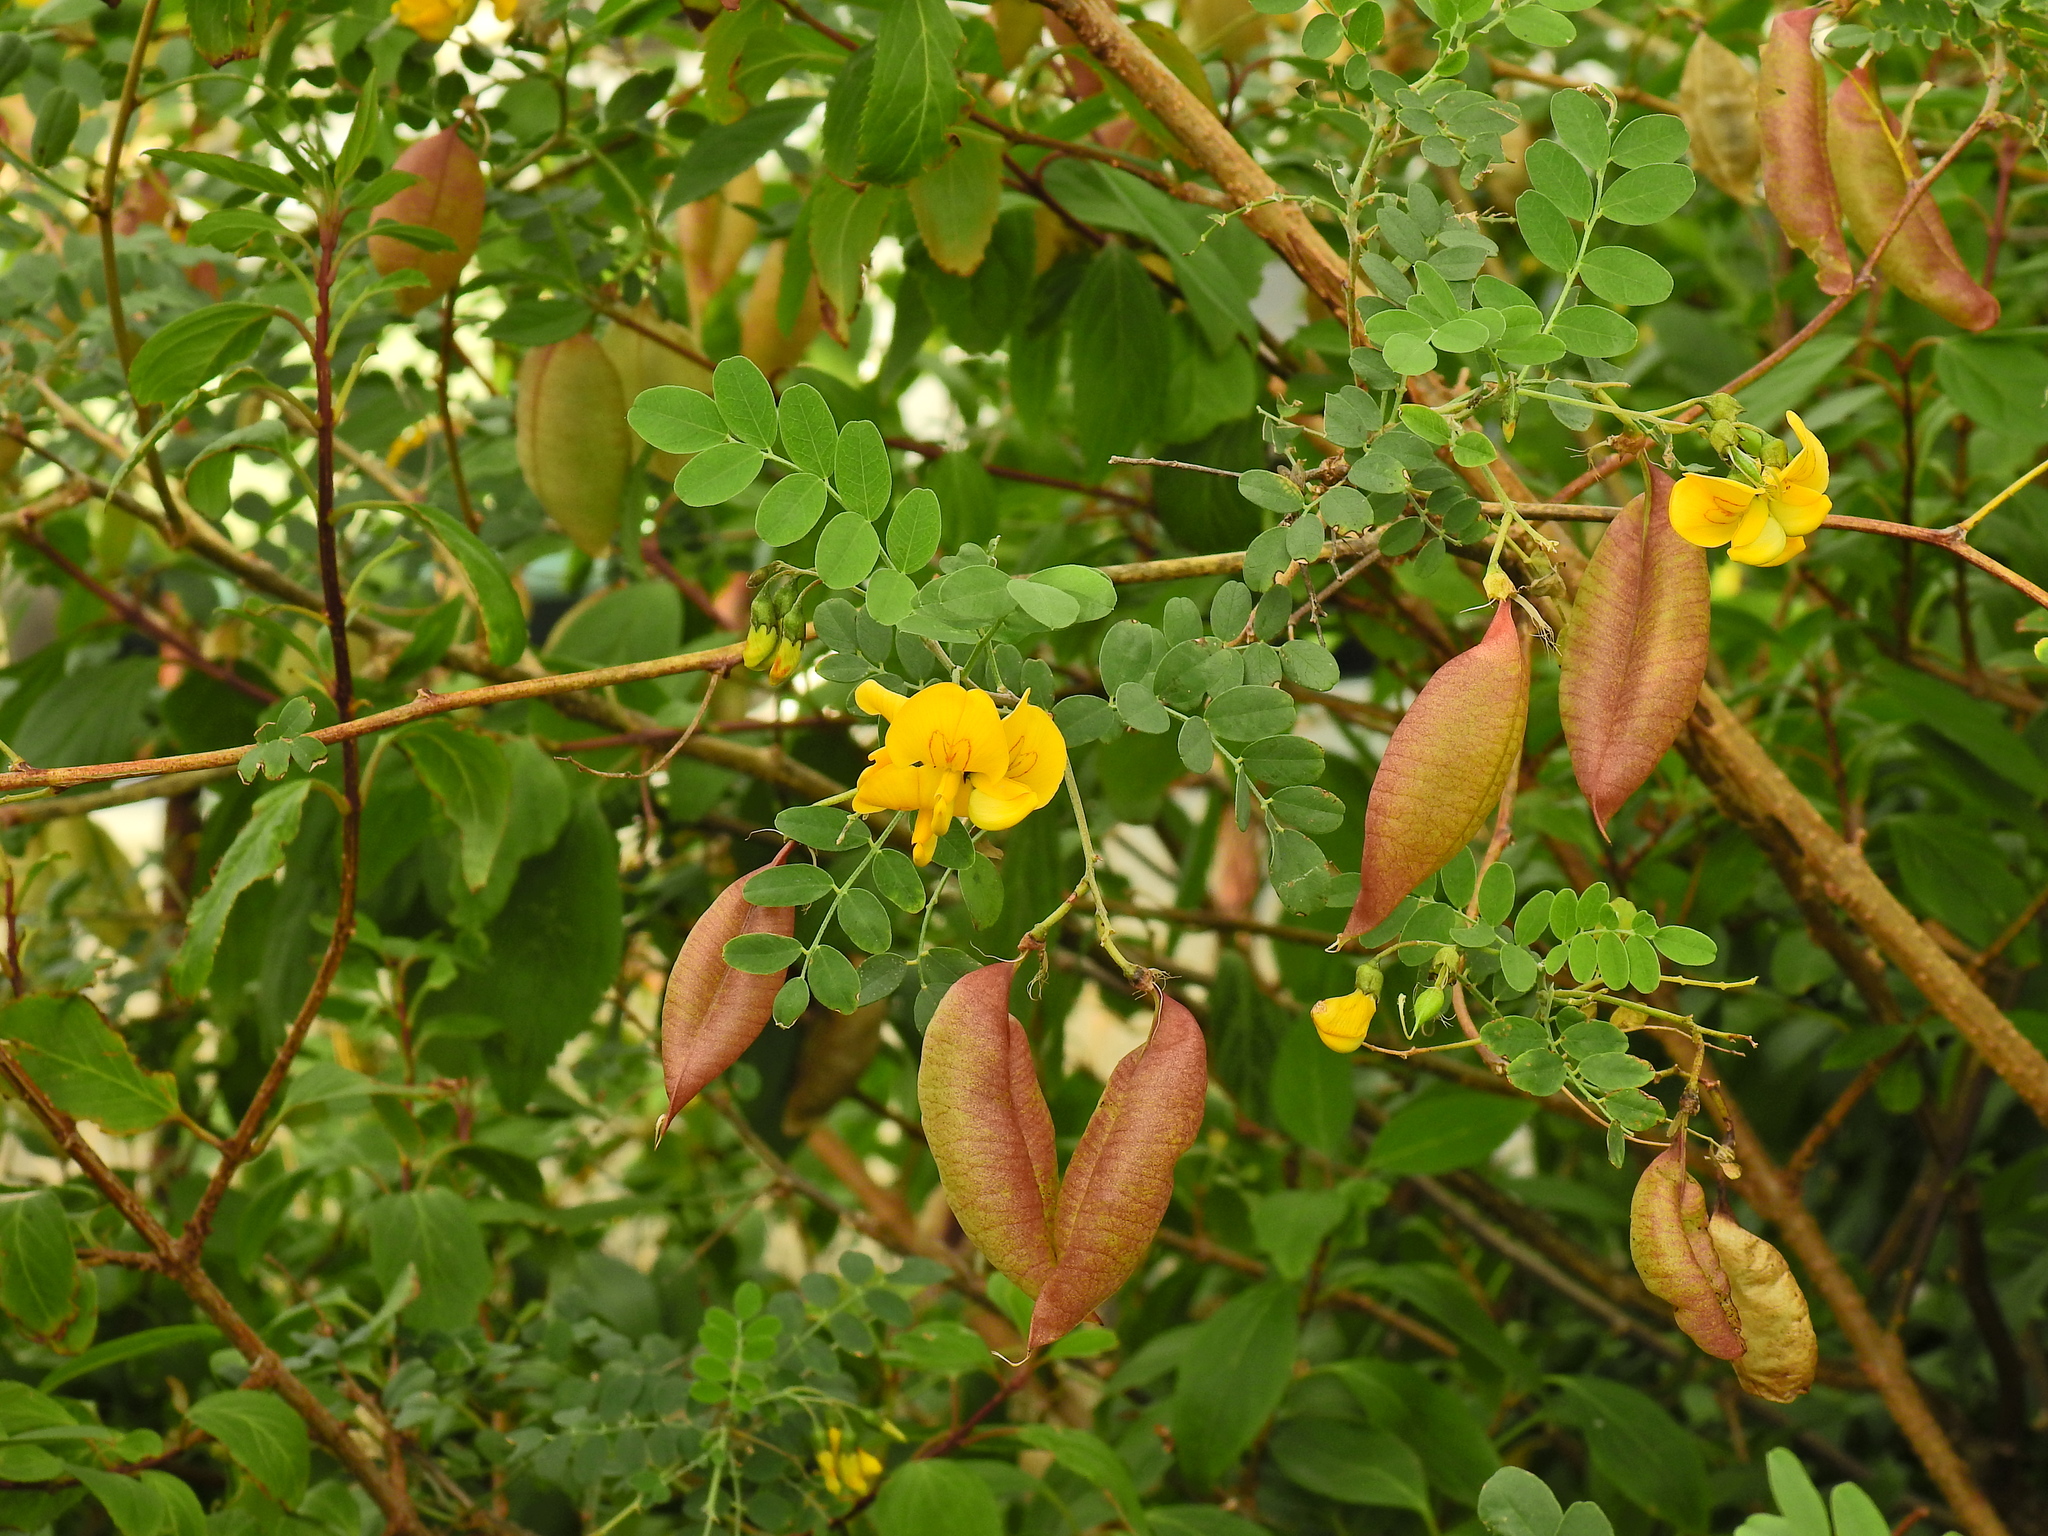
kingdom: Plantae
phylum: Tracheophyta
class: Magnoliopsida
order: Fabales
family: Fabaceae
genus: Colutea
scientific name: Colutea arborescens
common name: Bladder-senna
